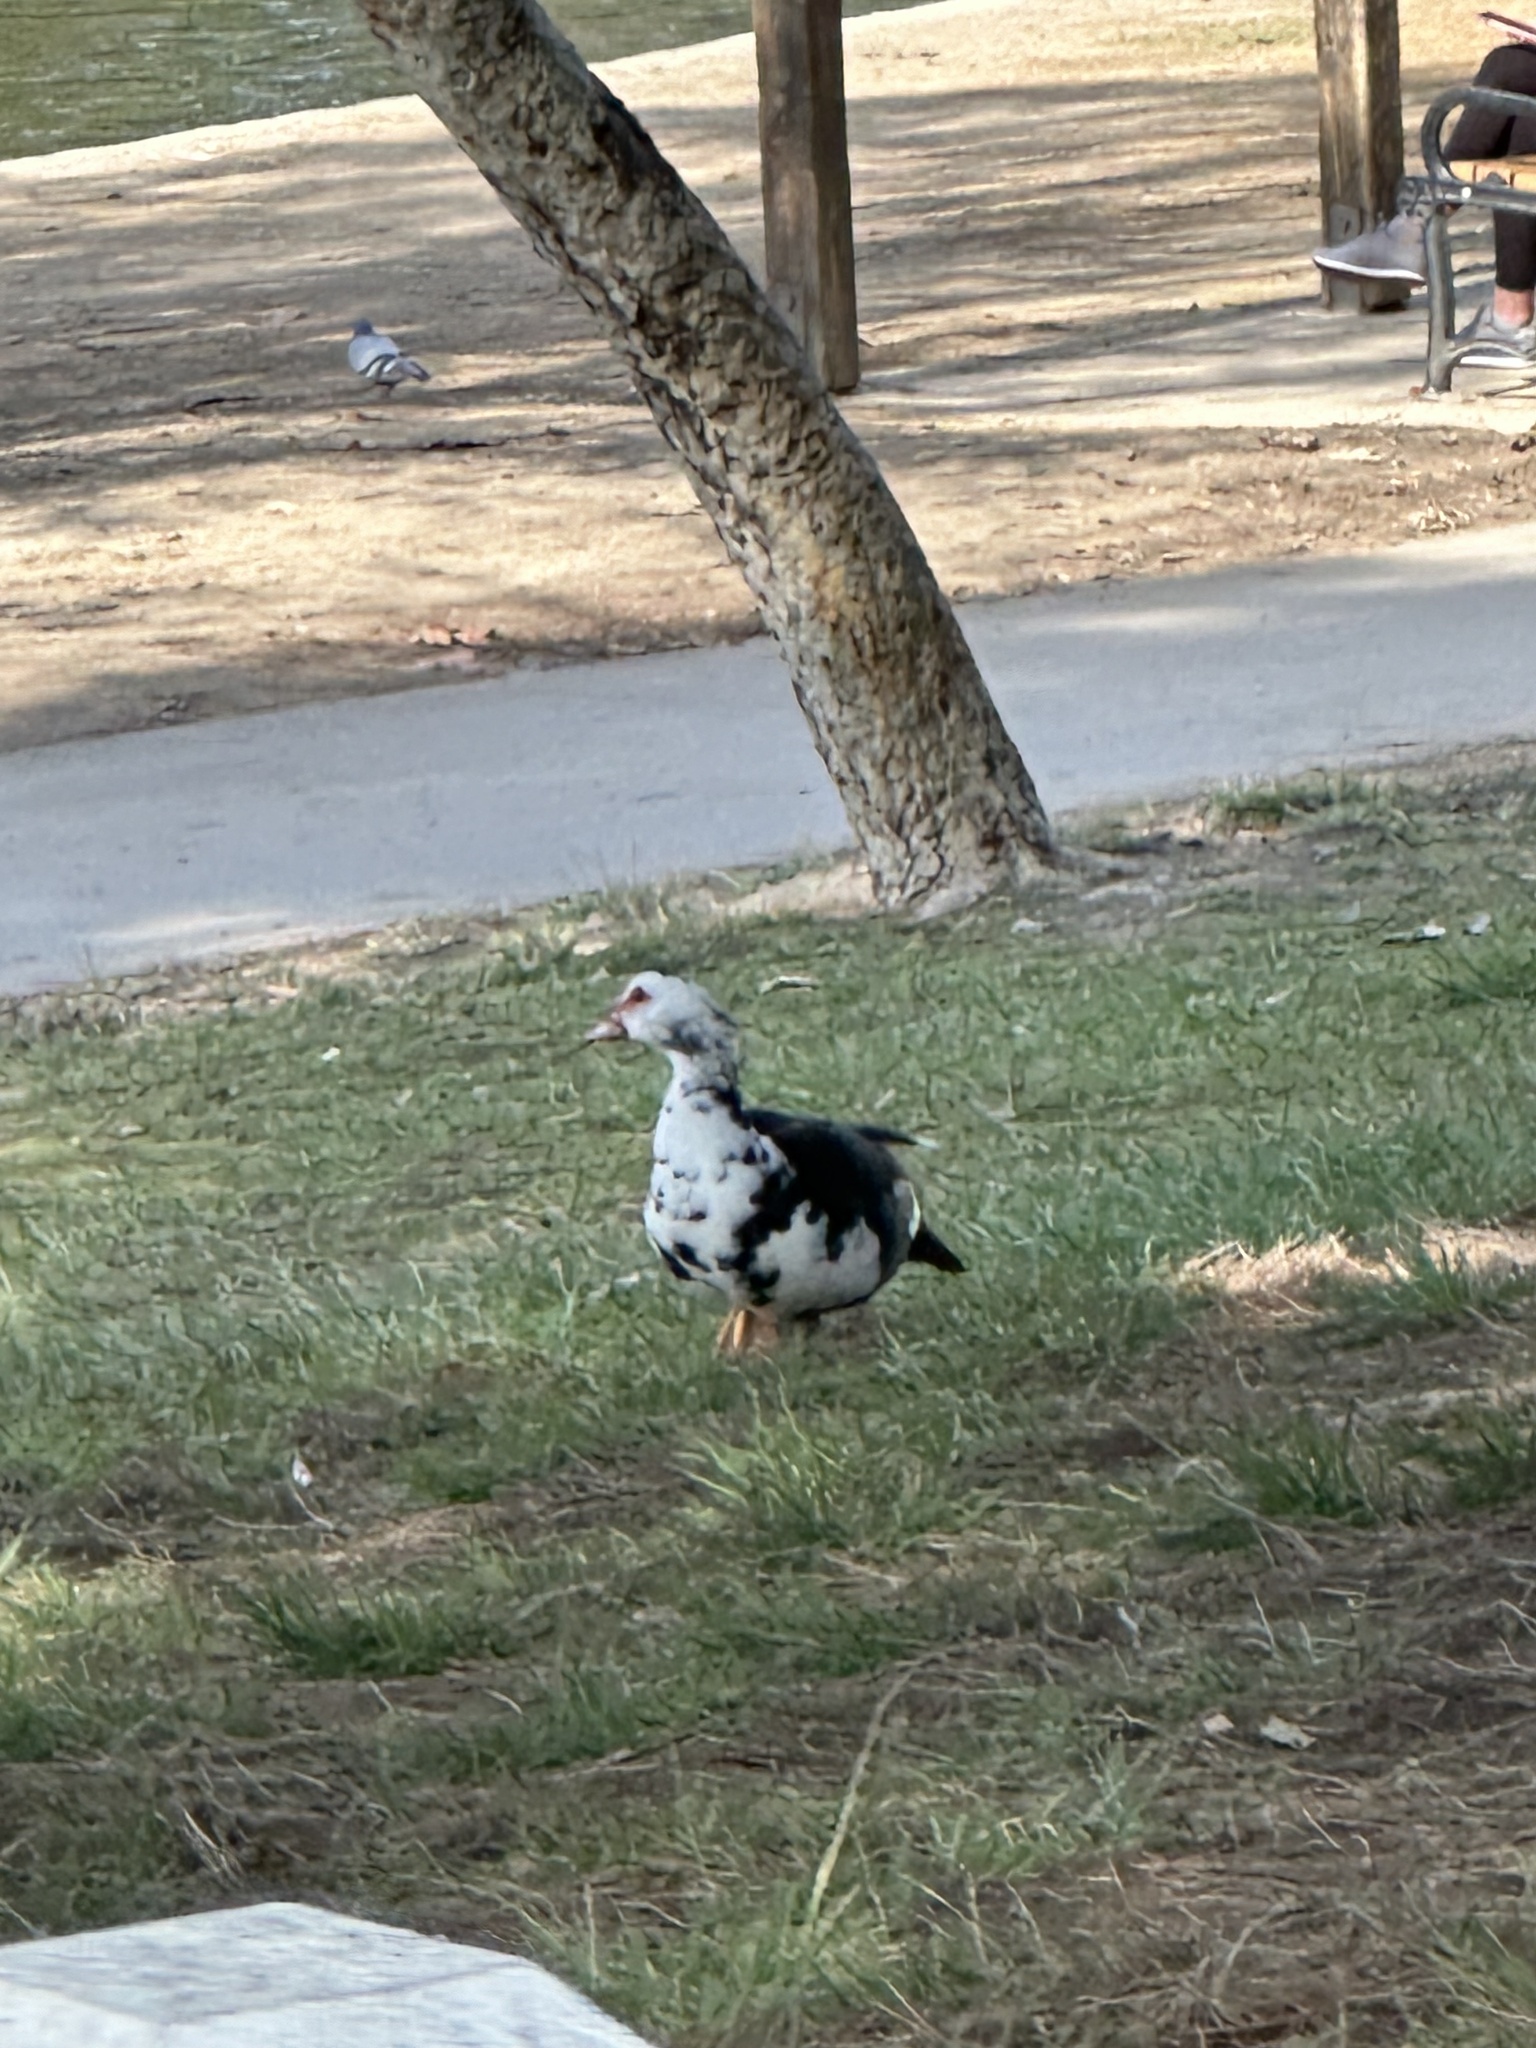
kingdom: Animalia
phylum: Chordata
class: Aves
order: Anseriformes
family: Anatidae
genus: Cairina
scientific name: Cairina moschata
